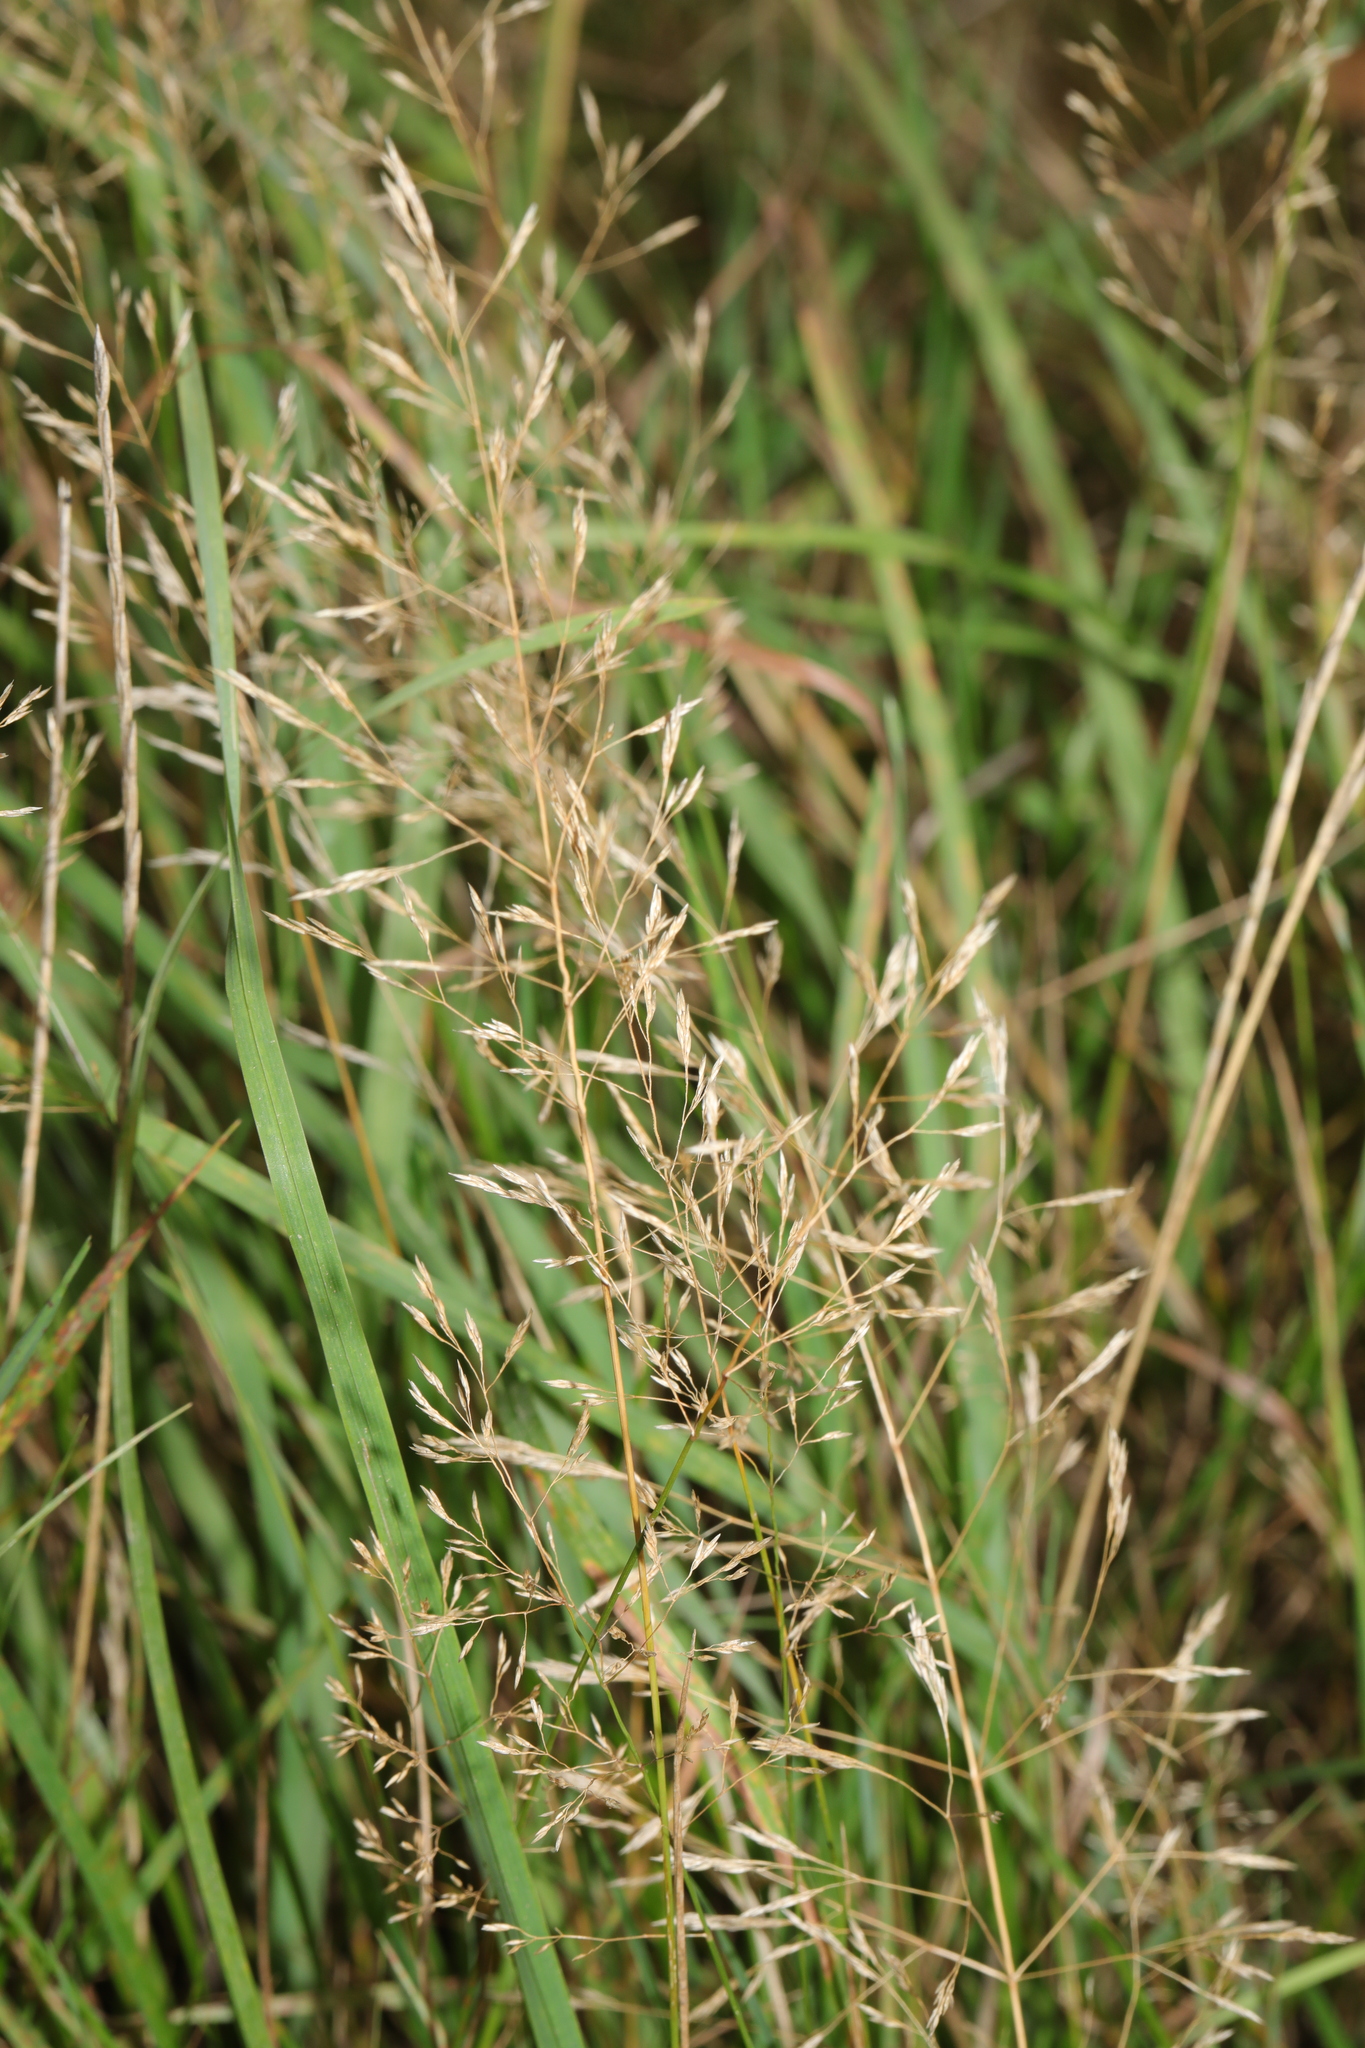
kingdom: Plantae
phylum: Tracheophyta
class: Liliopsida
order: Poales
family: Poaceae
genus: Agrostis
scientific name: Agrostis capillaris
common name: Colonial bentgrass
